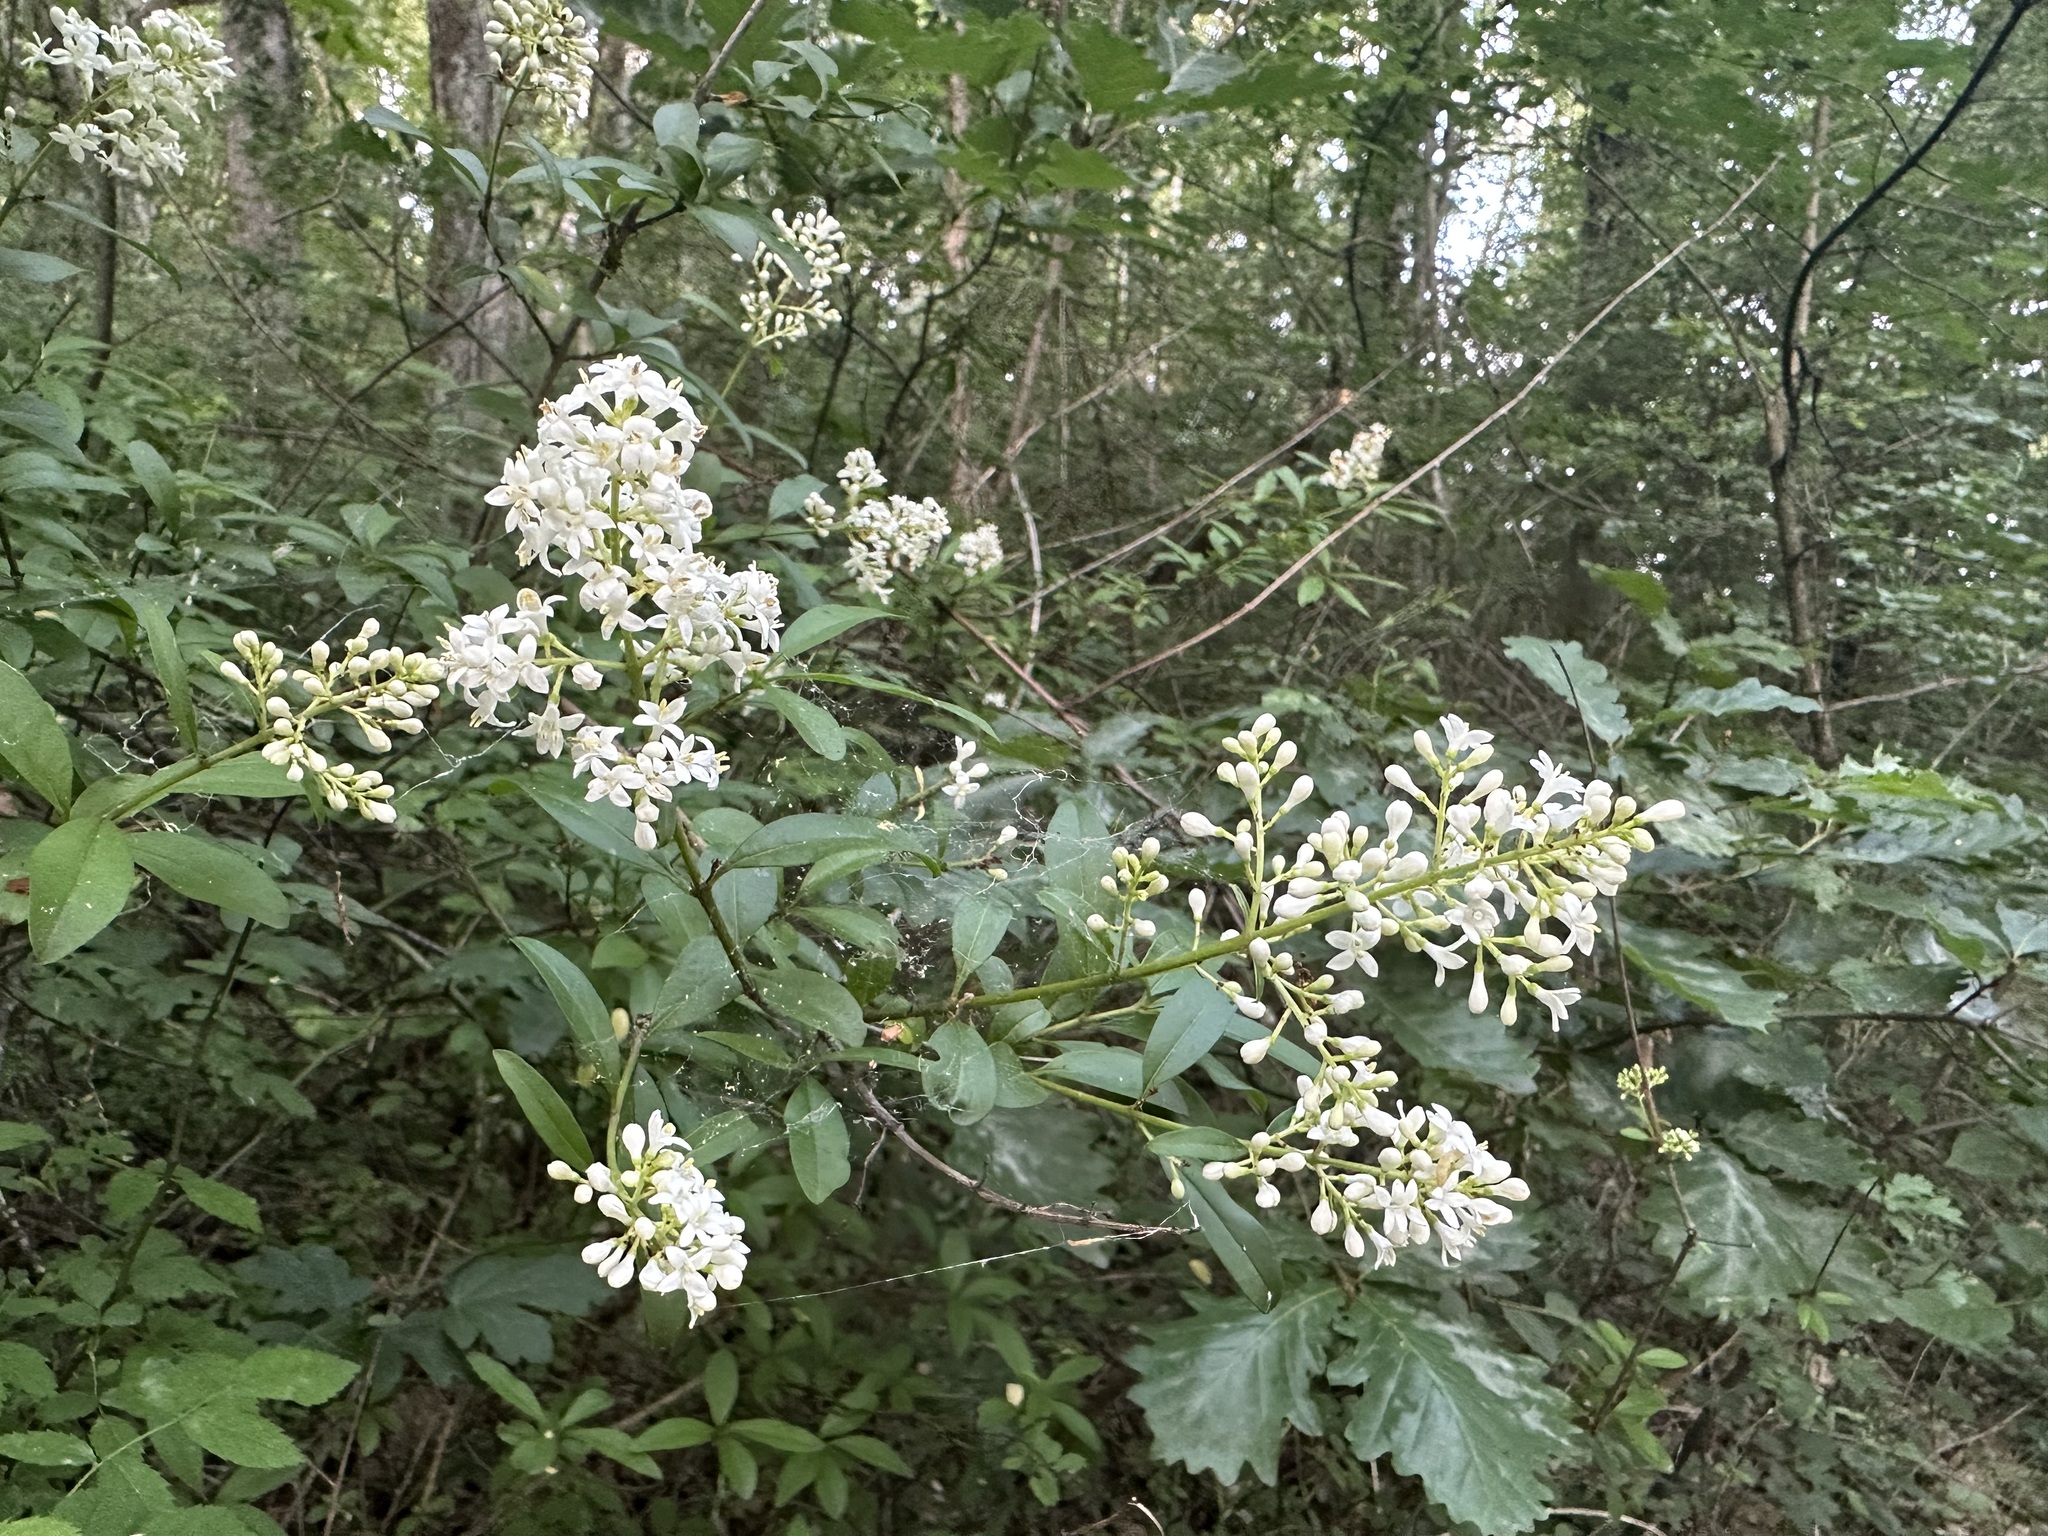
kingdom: Plantae
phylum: Tracheophyta
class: Magnoliopsida
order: Lamiales
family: Oleaceae
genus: Ligustrum
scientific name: Ligustrum vulgare
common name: Wild privet
